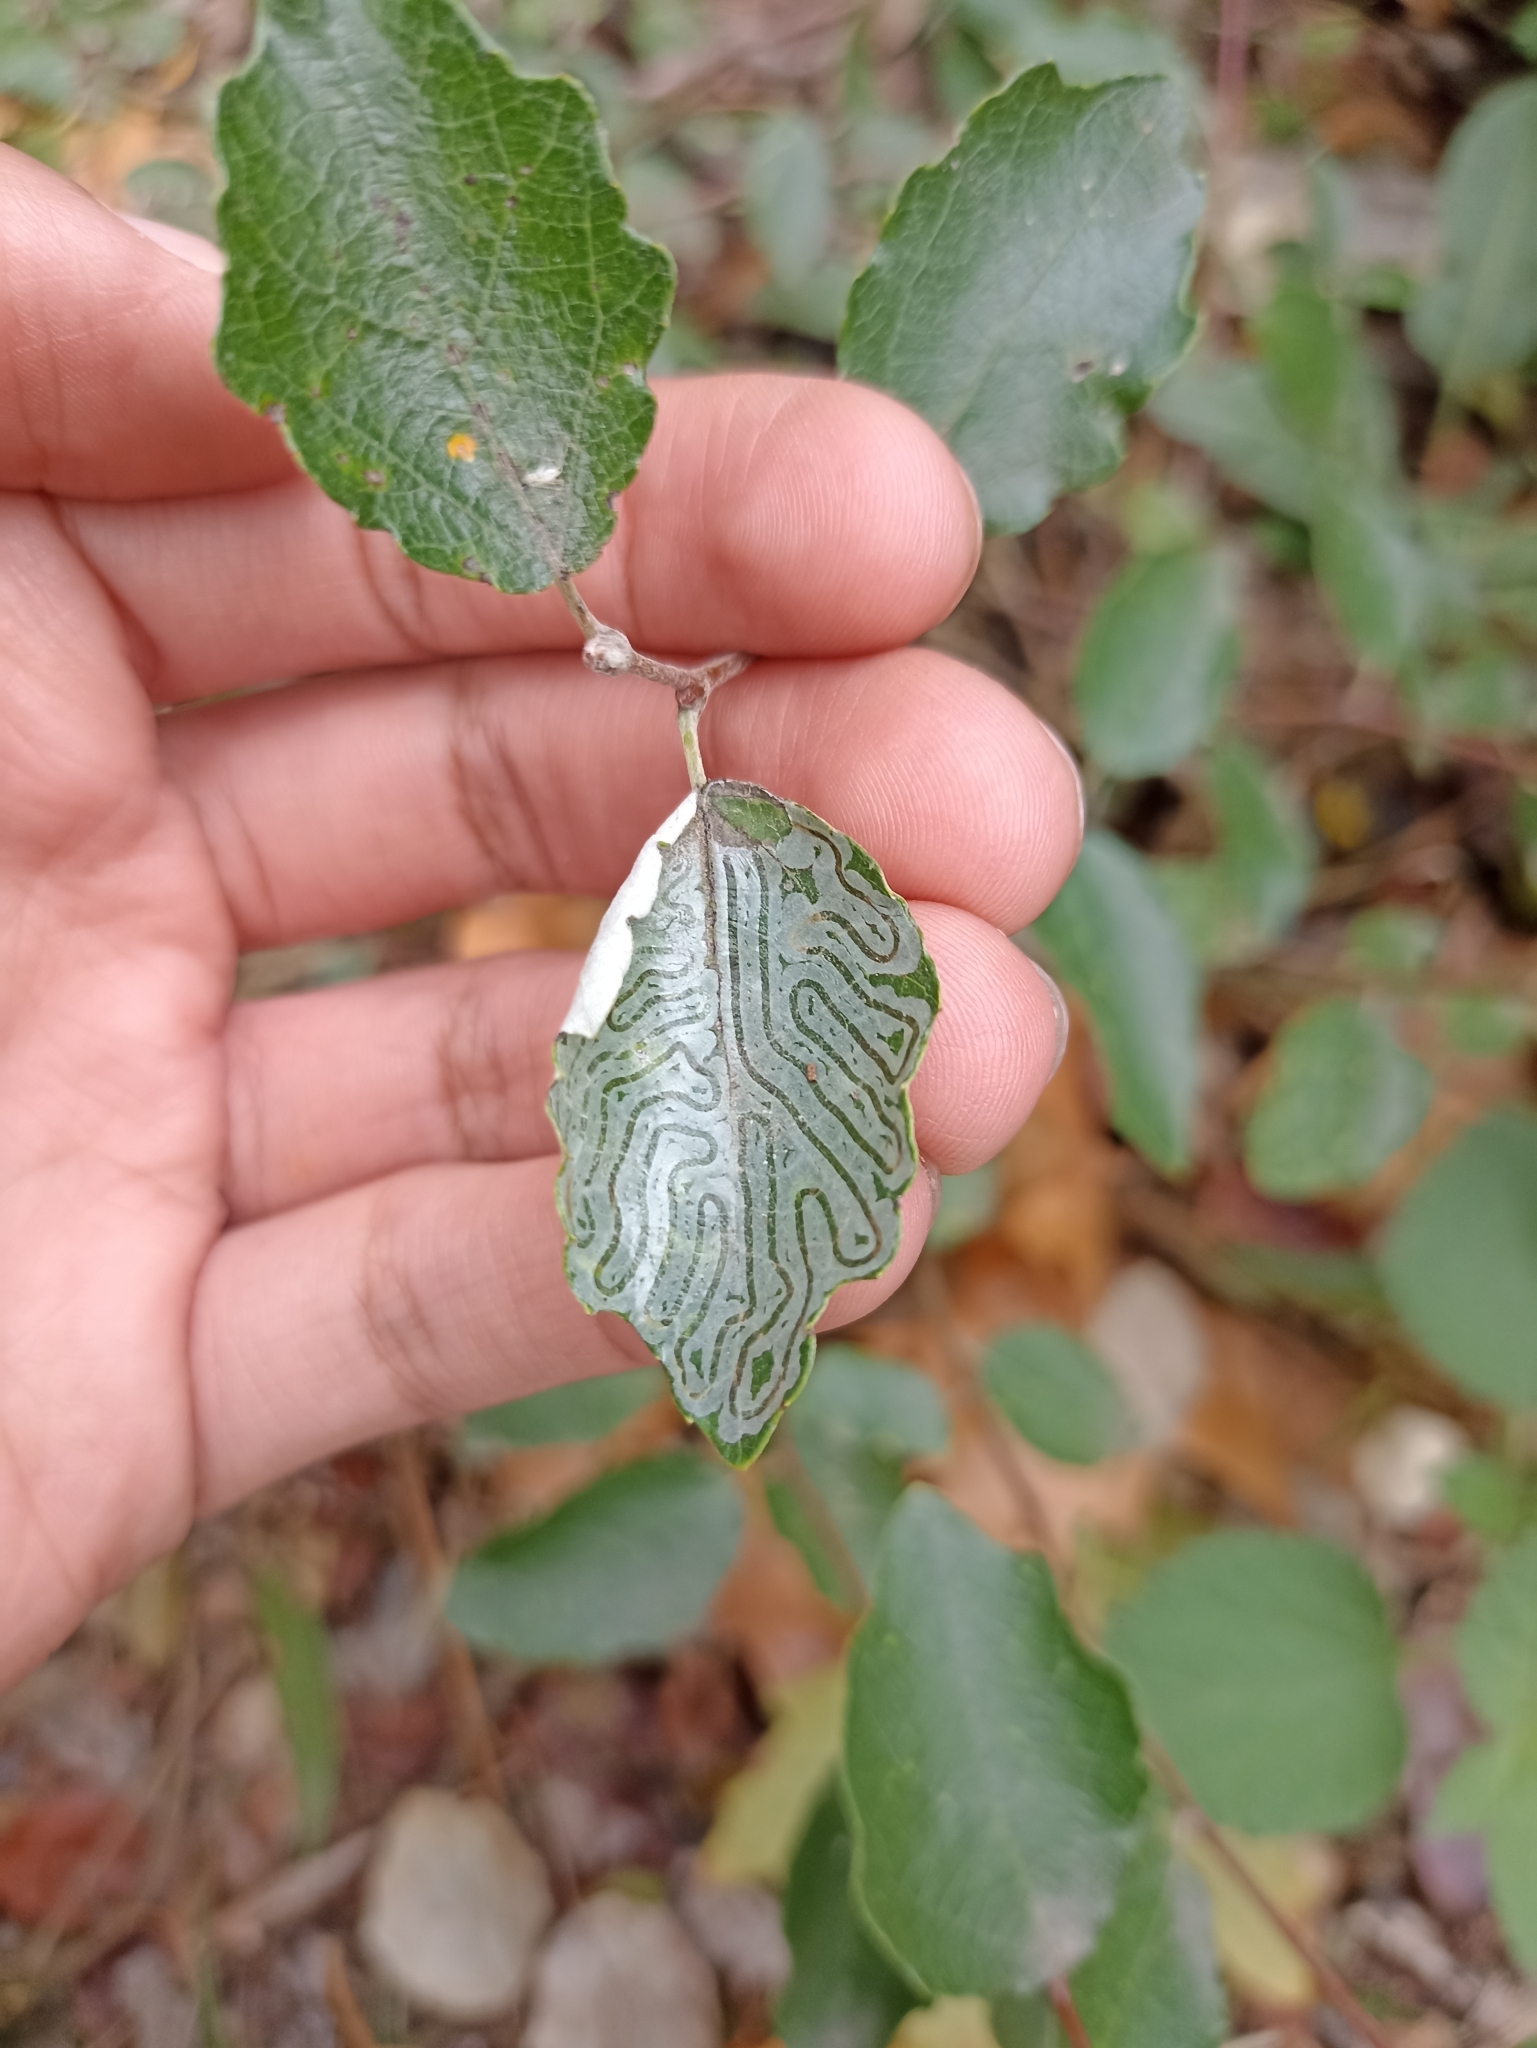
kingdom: Animalia
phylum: Arthropoda
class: Insecta
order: Lepidoptera
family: Gracillariidae
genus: Phyllocnistis
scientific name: Phyllocnistis labyrinthella
